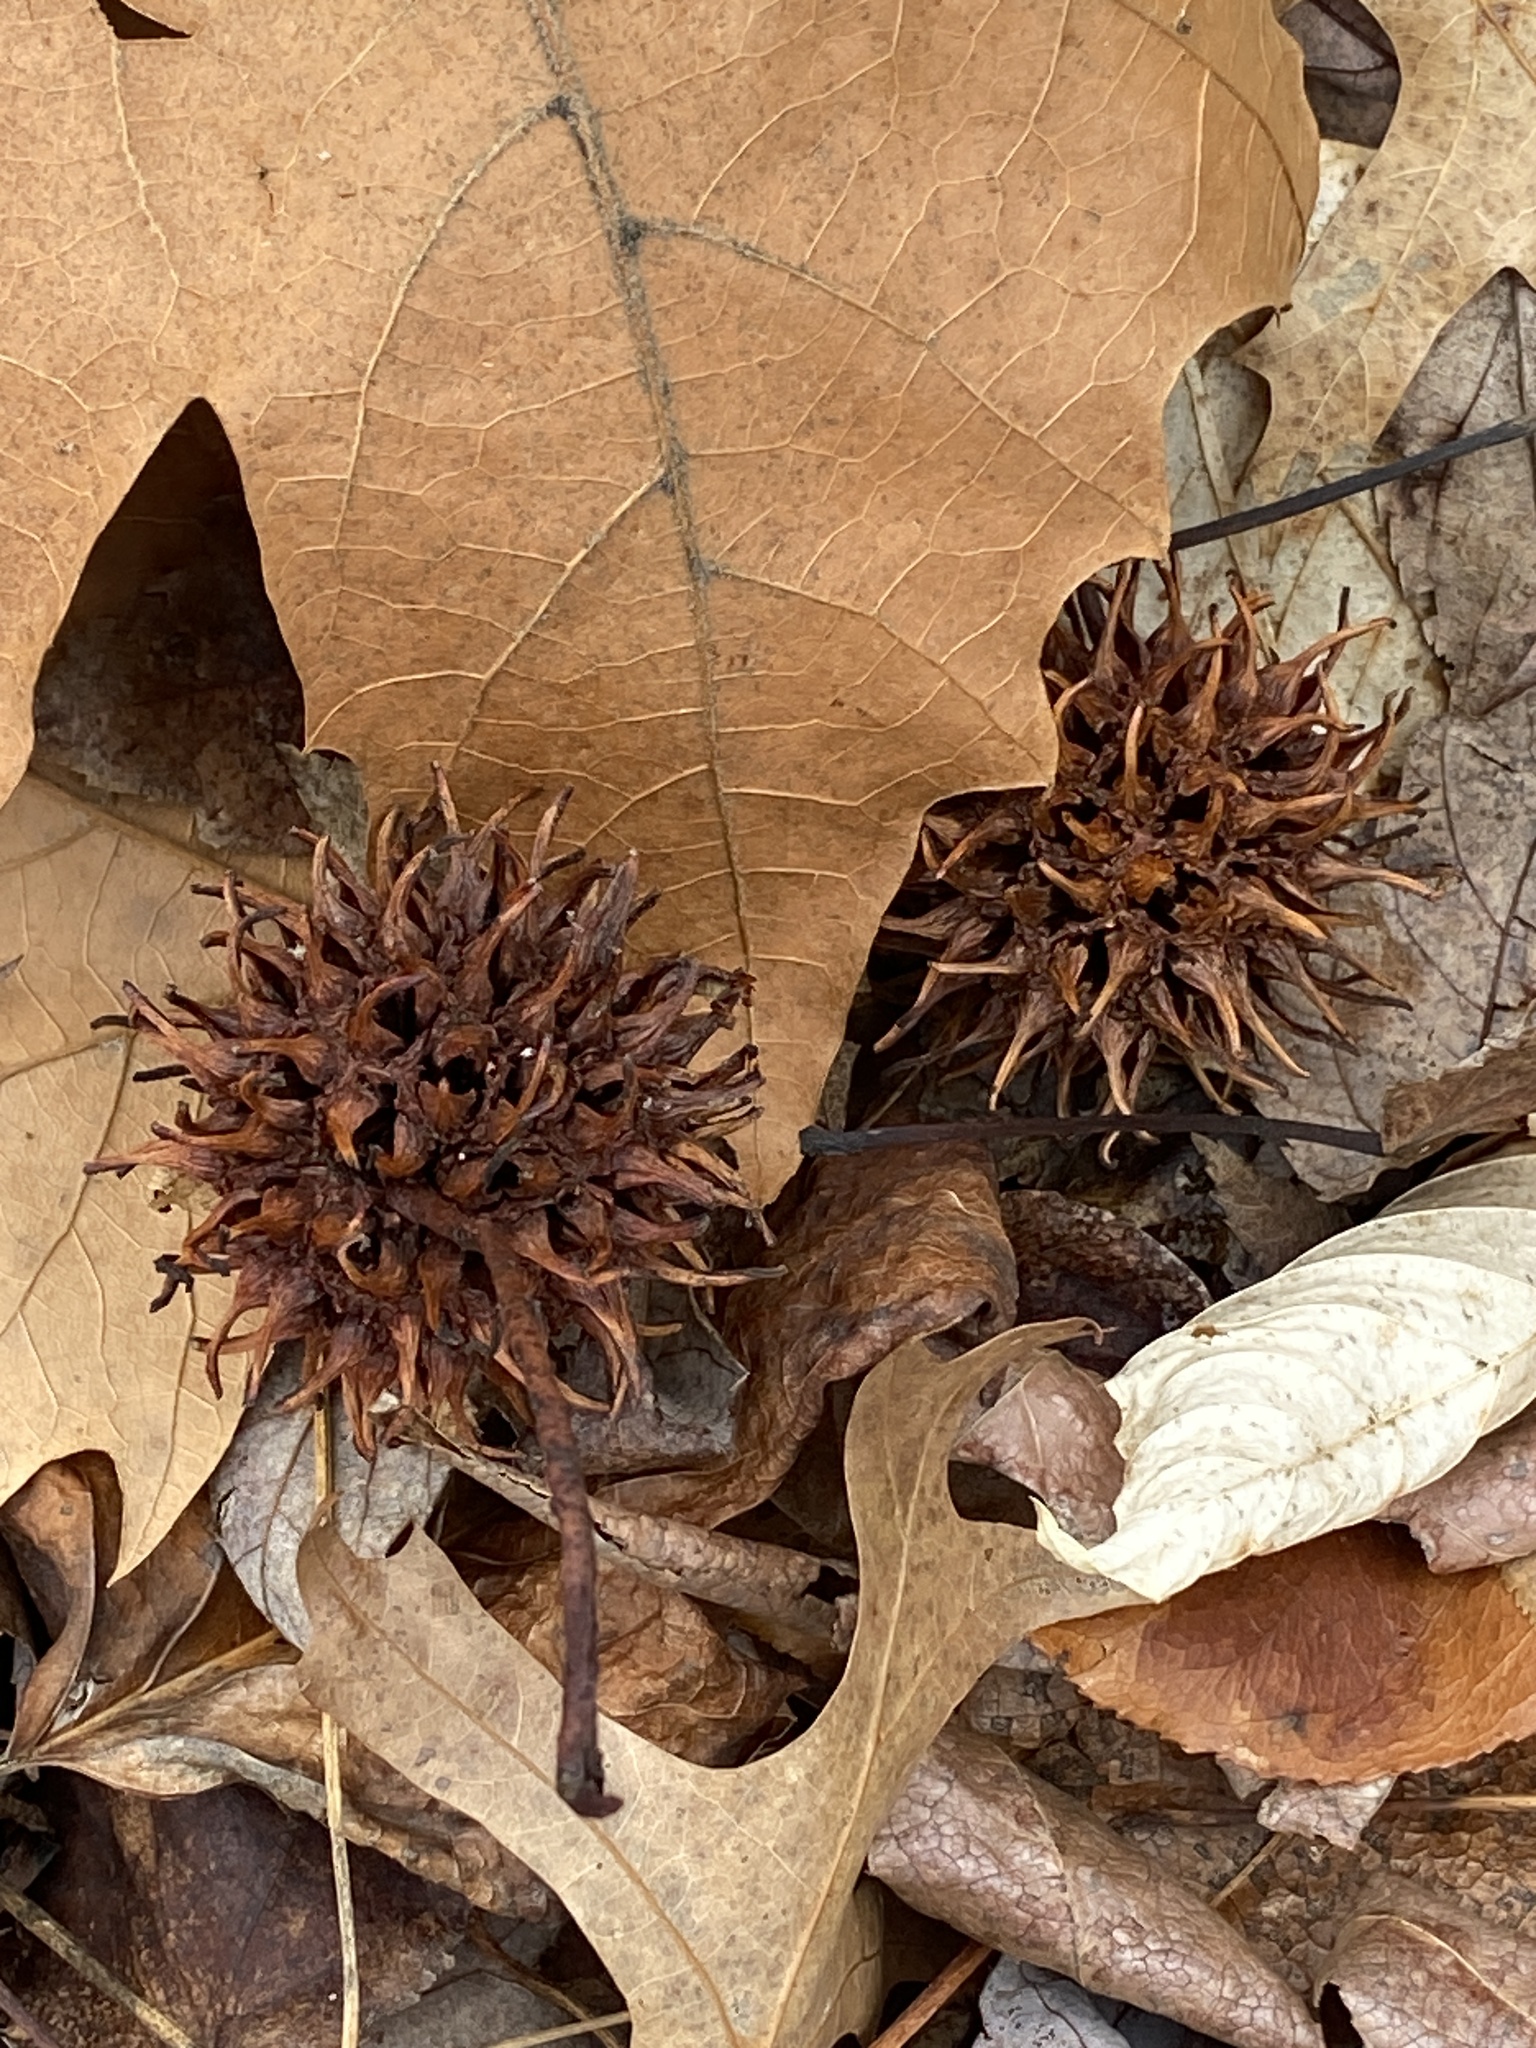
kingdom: Plantae
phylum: Tracheophyta
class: Magnoliopsida
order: Saxifragales
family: Altingiaceae
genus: Liquidambar
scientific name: Liquidambar styraciflua
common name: Sweet gum
